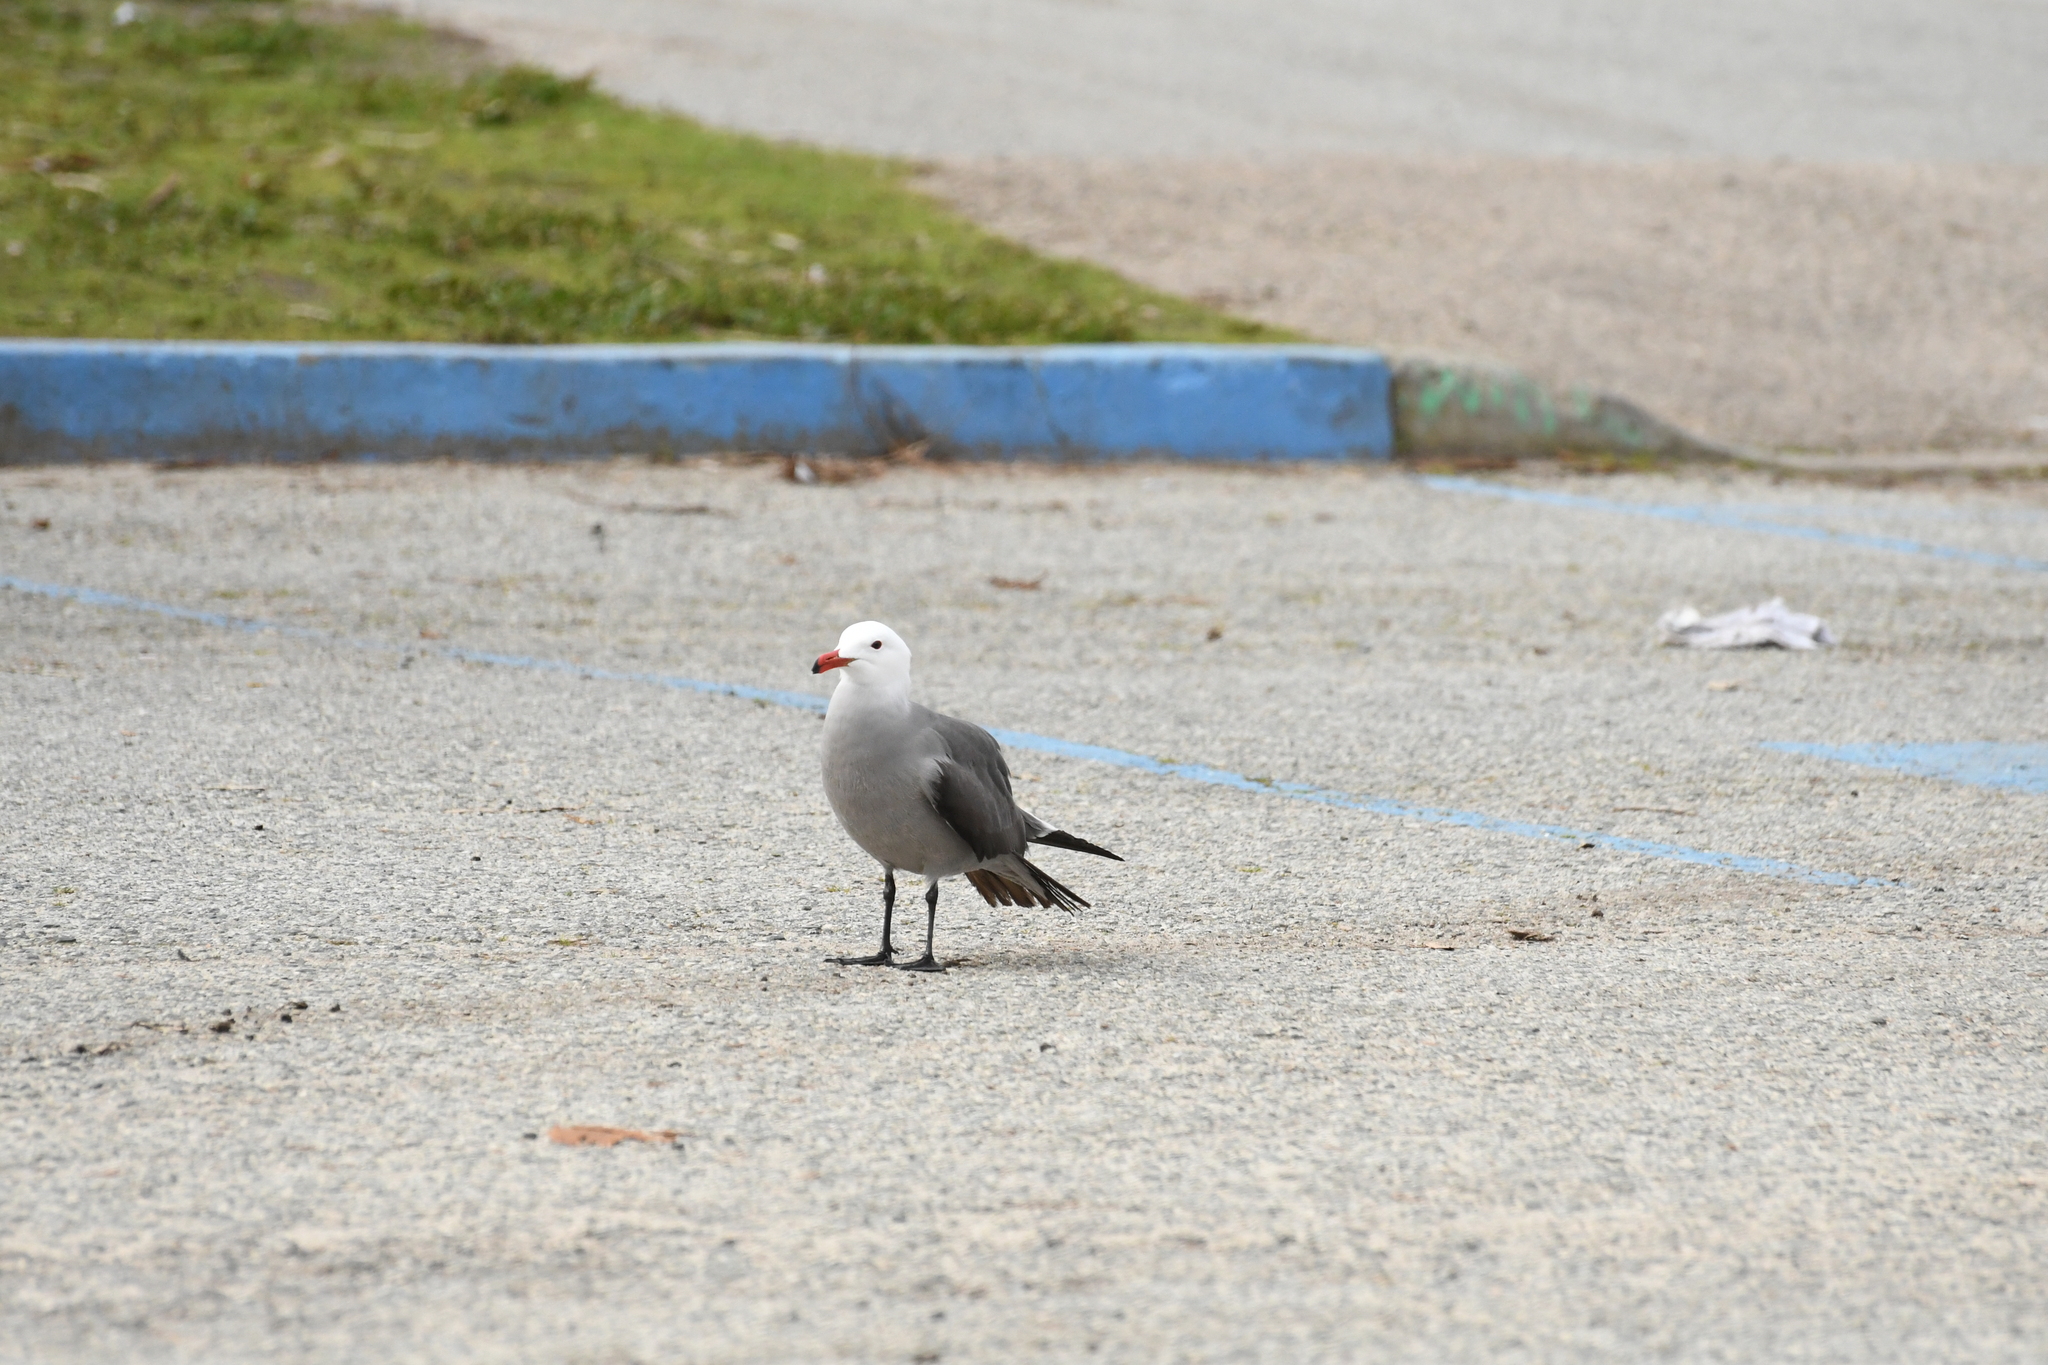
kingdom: Animalia
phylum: Chordata
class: Aves
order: Charadriiformes
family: Laridae
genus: Larus
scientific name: Larus heermanni
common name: Heermann's gull
